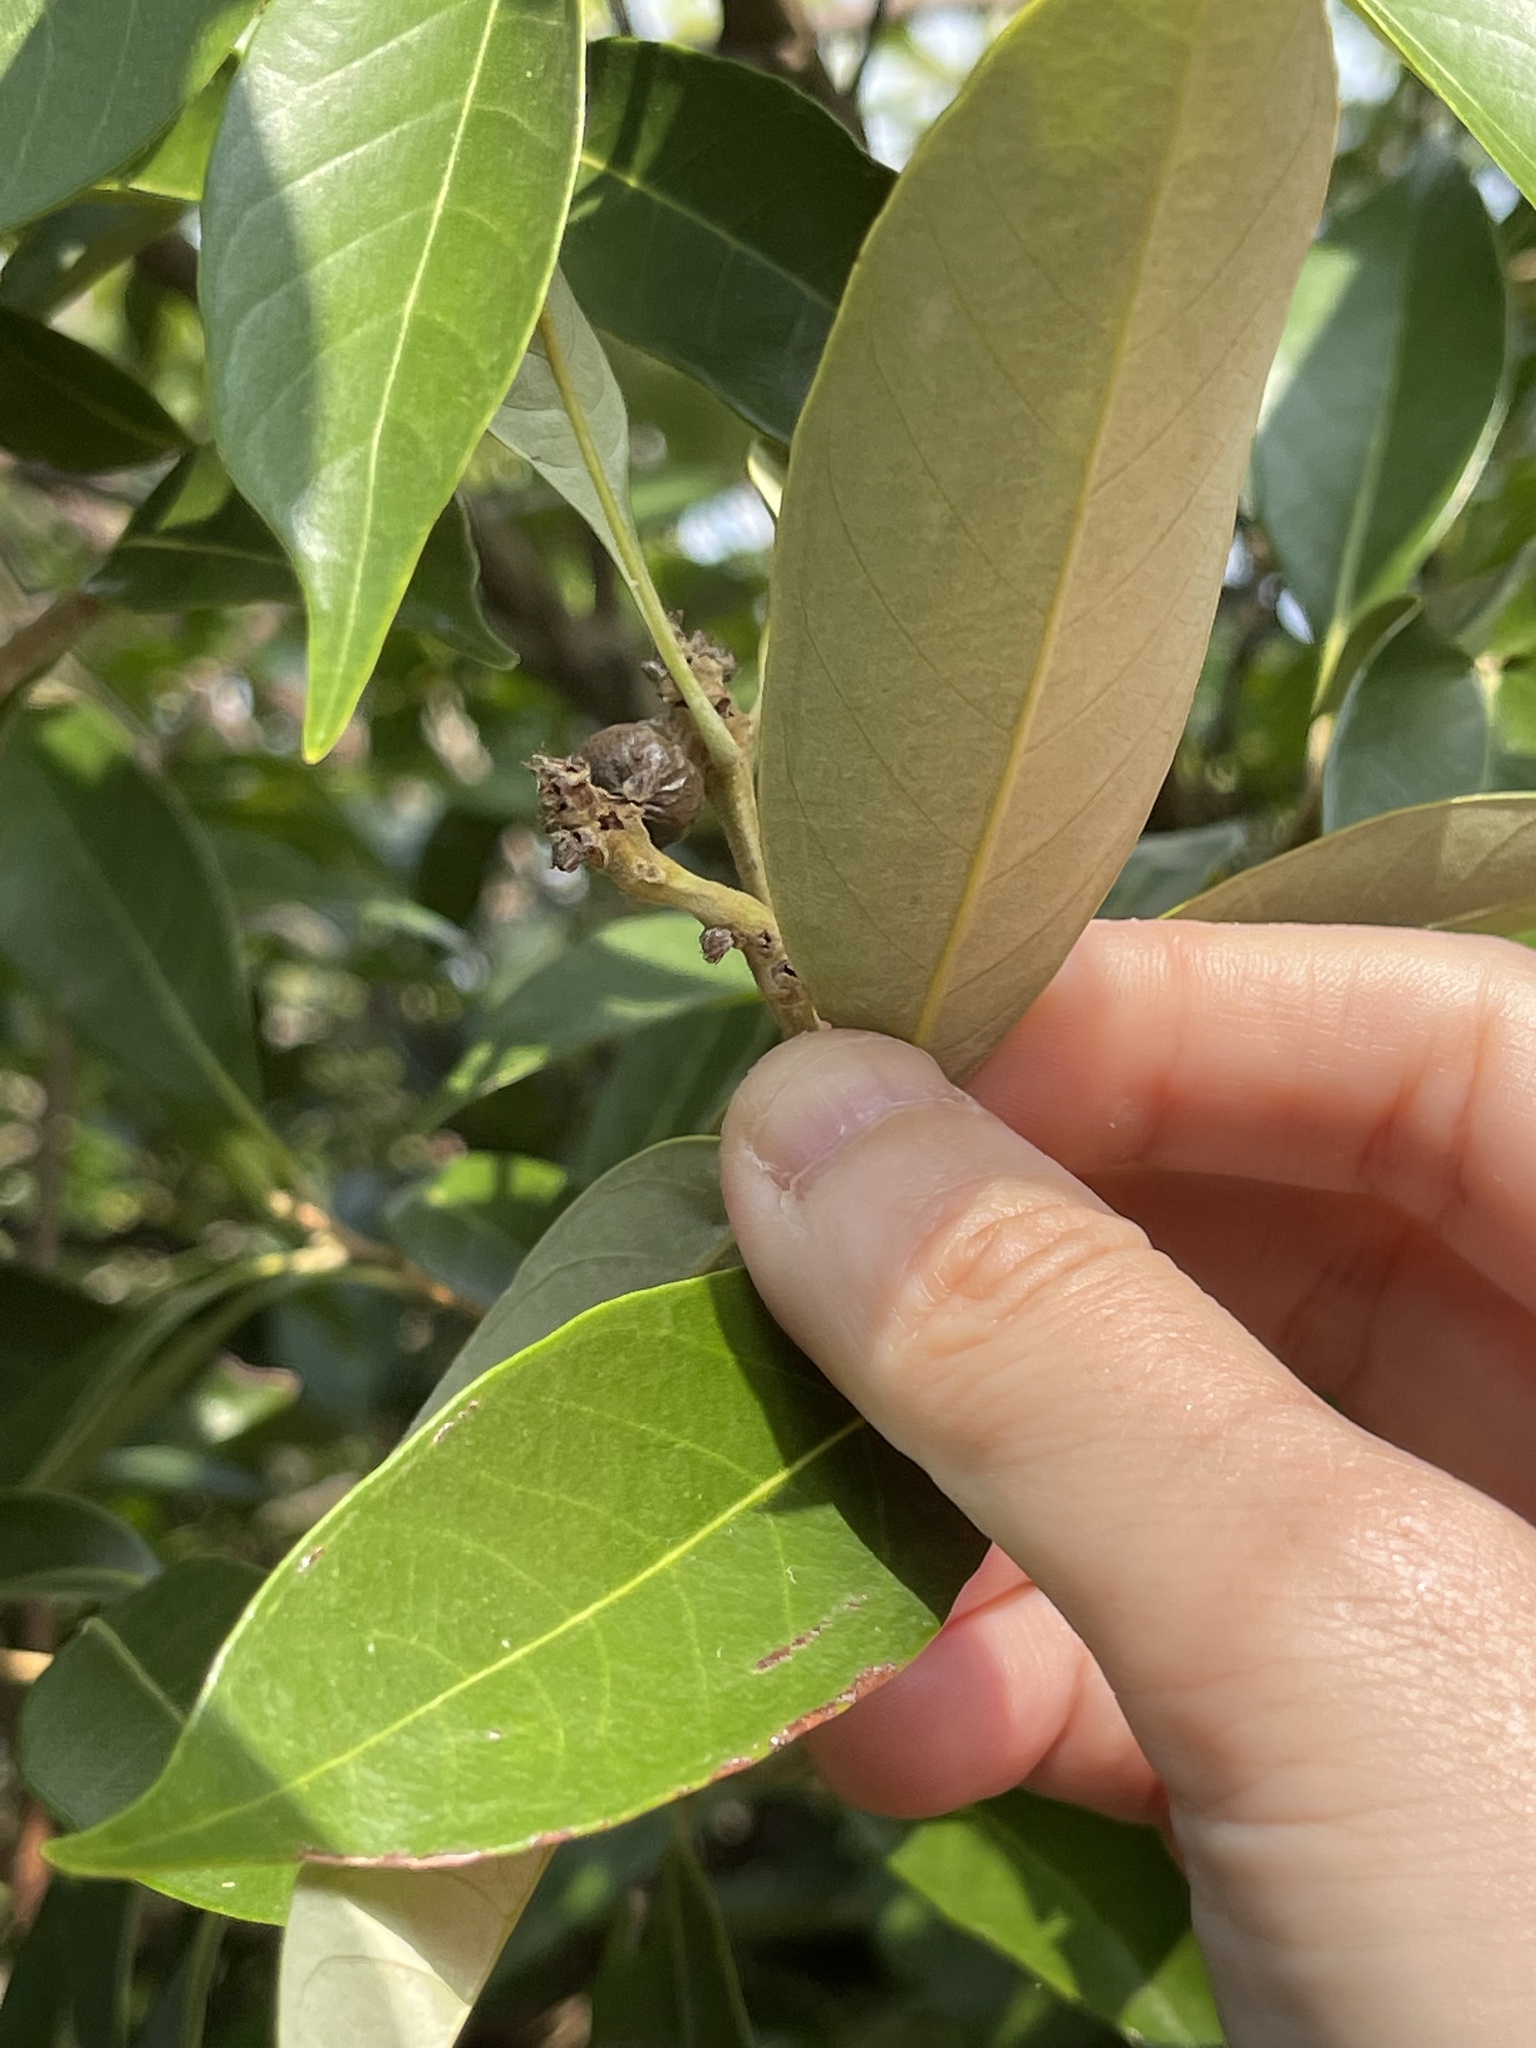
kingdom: Plantae
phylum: Tracheophyta
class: Magnoliopsida
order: Fagales
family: Fagaceae
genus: Lithocarpus
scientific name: Lithocarpus glaber
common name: Japanese-oak
